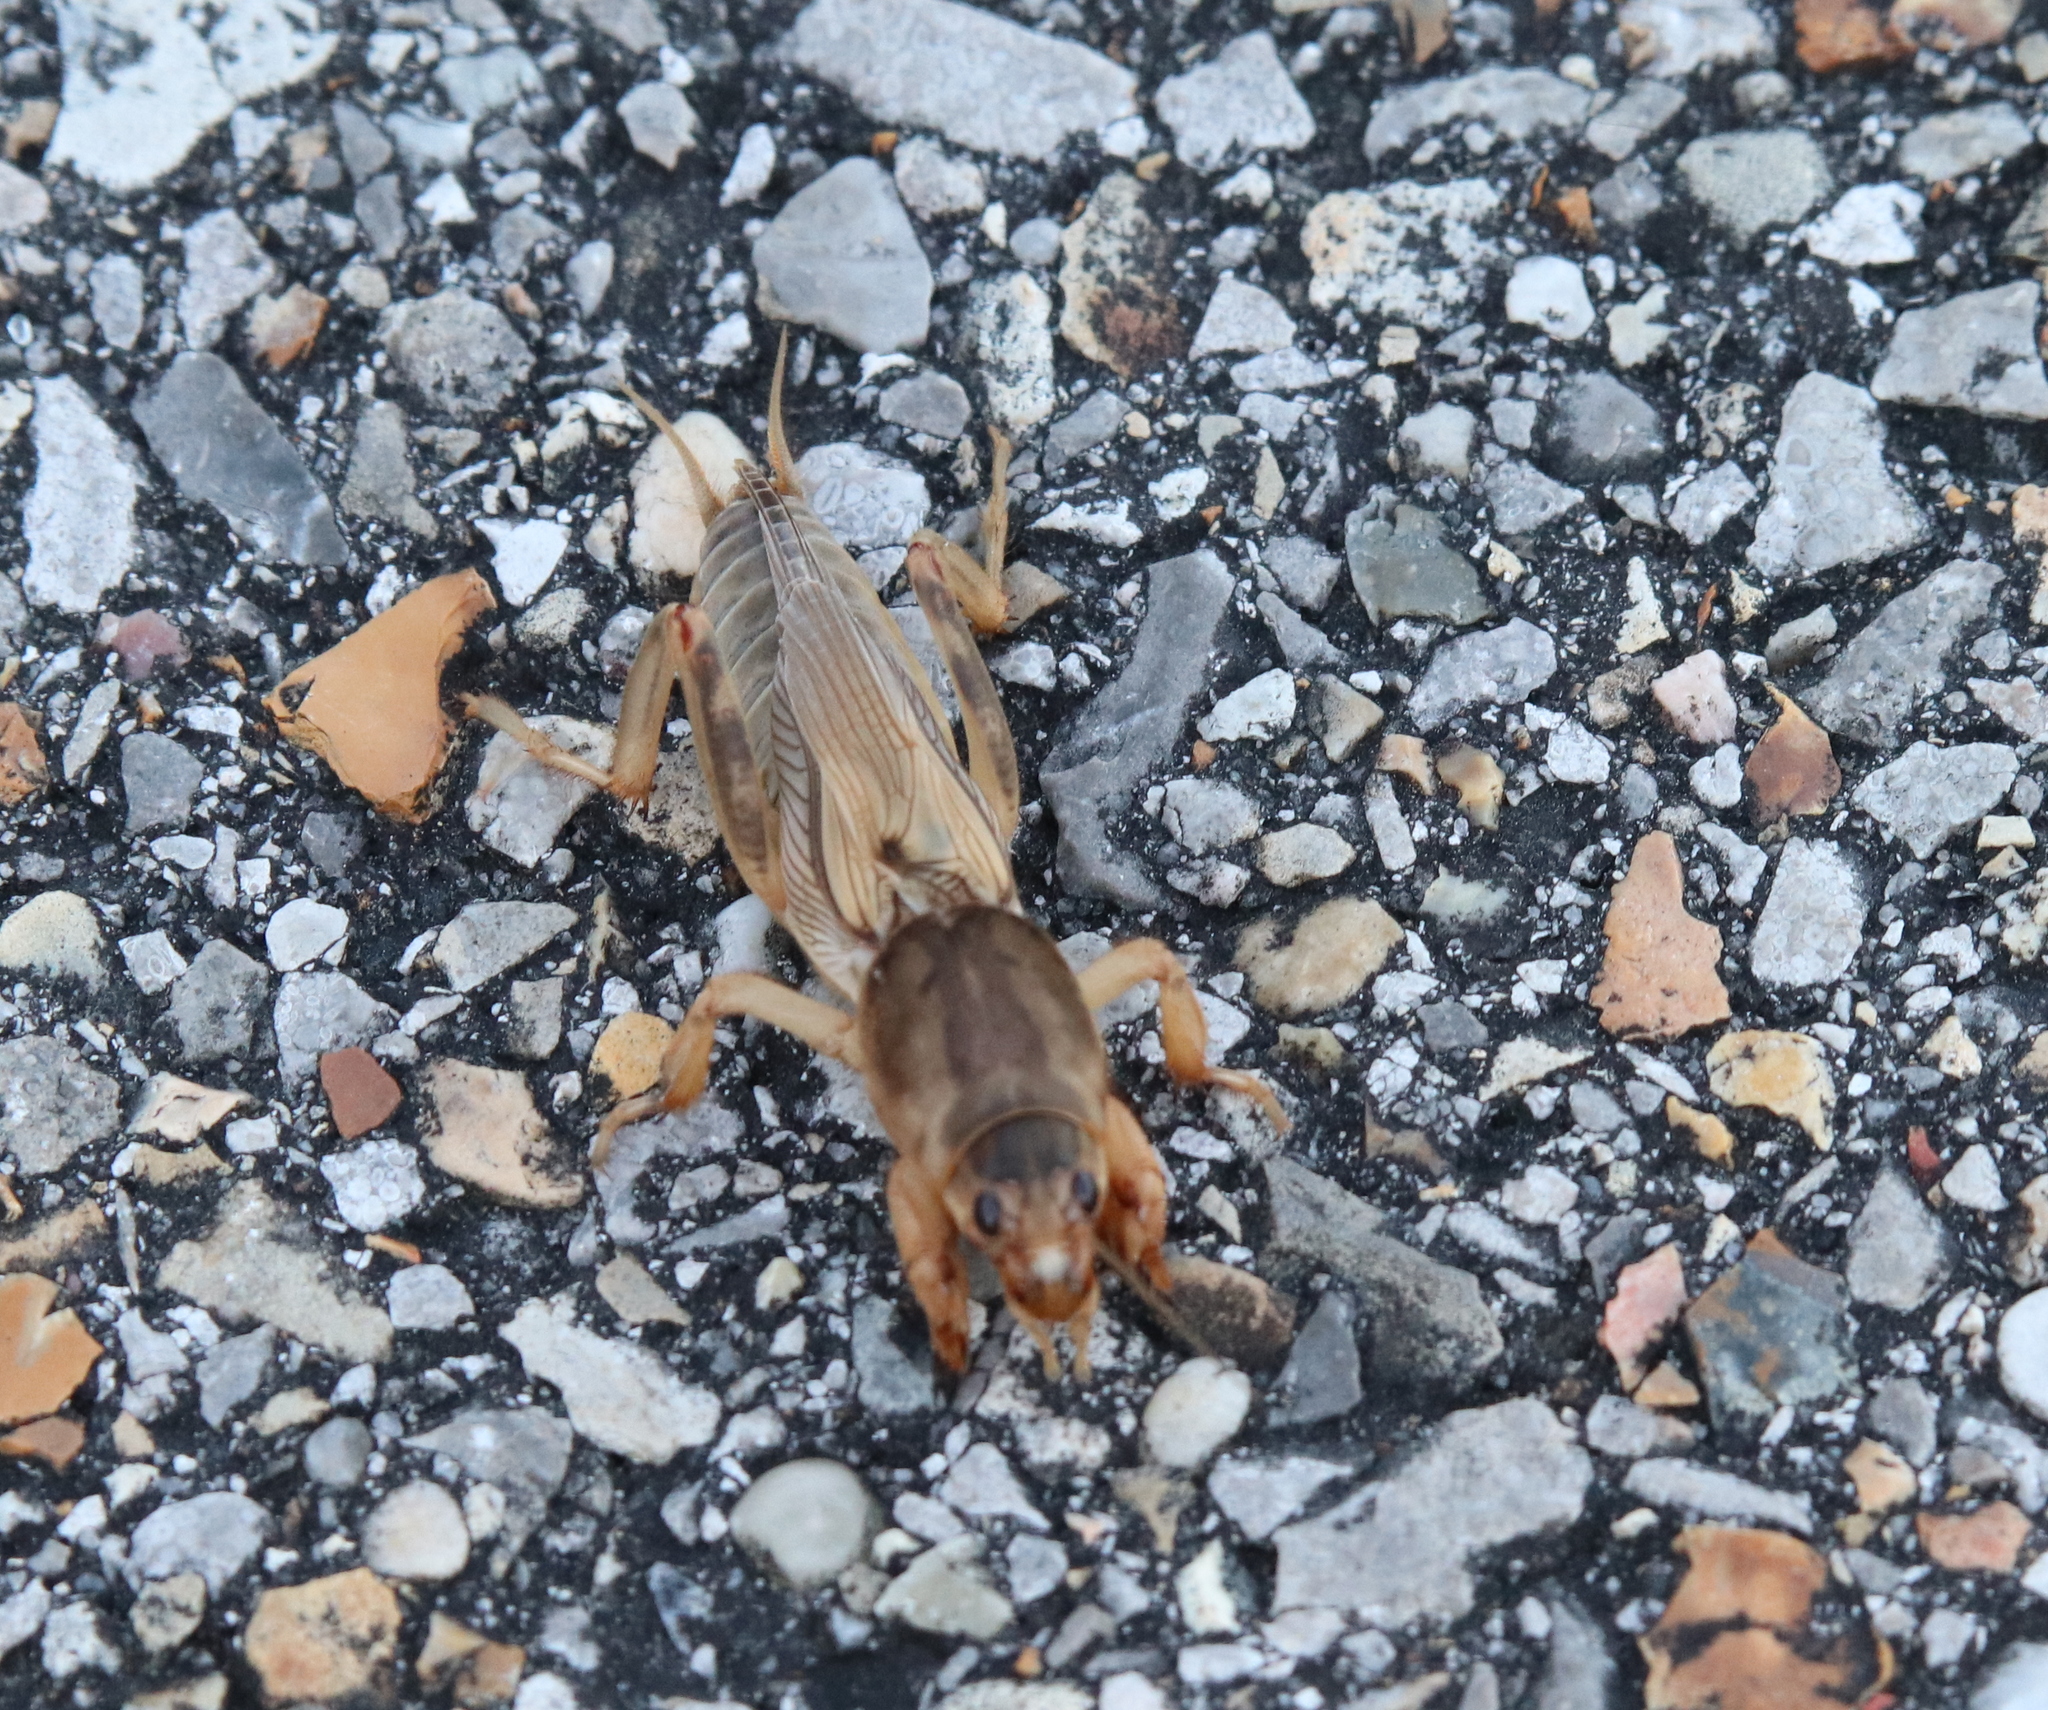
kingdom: Animalia
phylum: Arthropoda
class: Insecta
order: Orthoptera
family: Gryllotalpidae
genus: Neoscapteriscus
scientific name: Neoscapteriscus vicinus
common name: Tawny mole cricket
